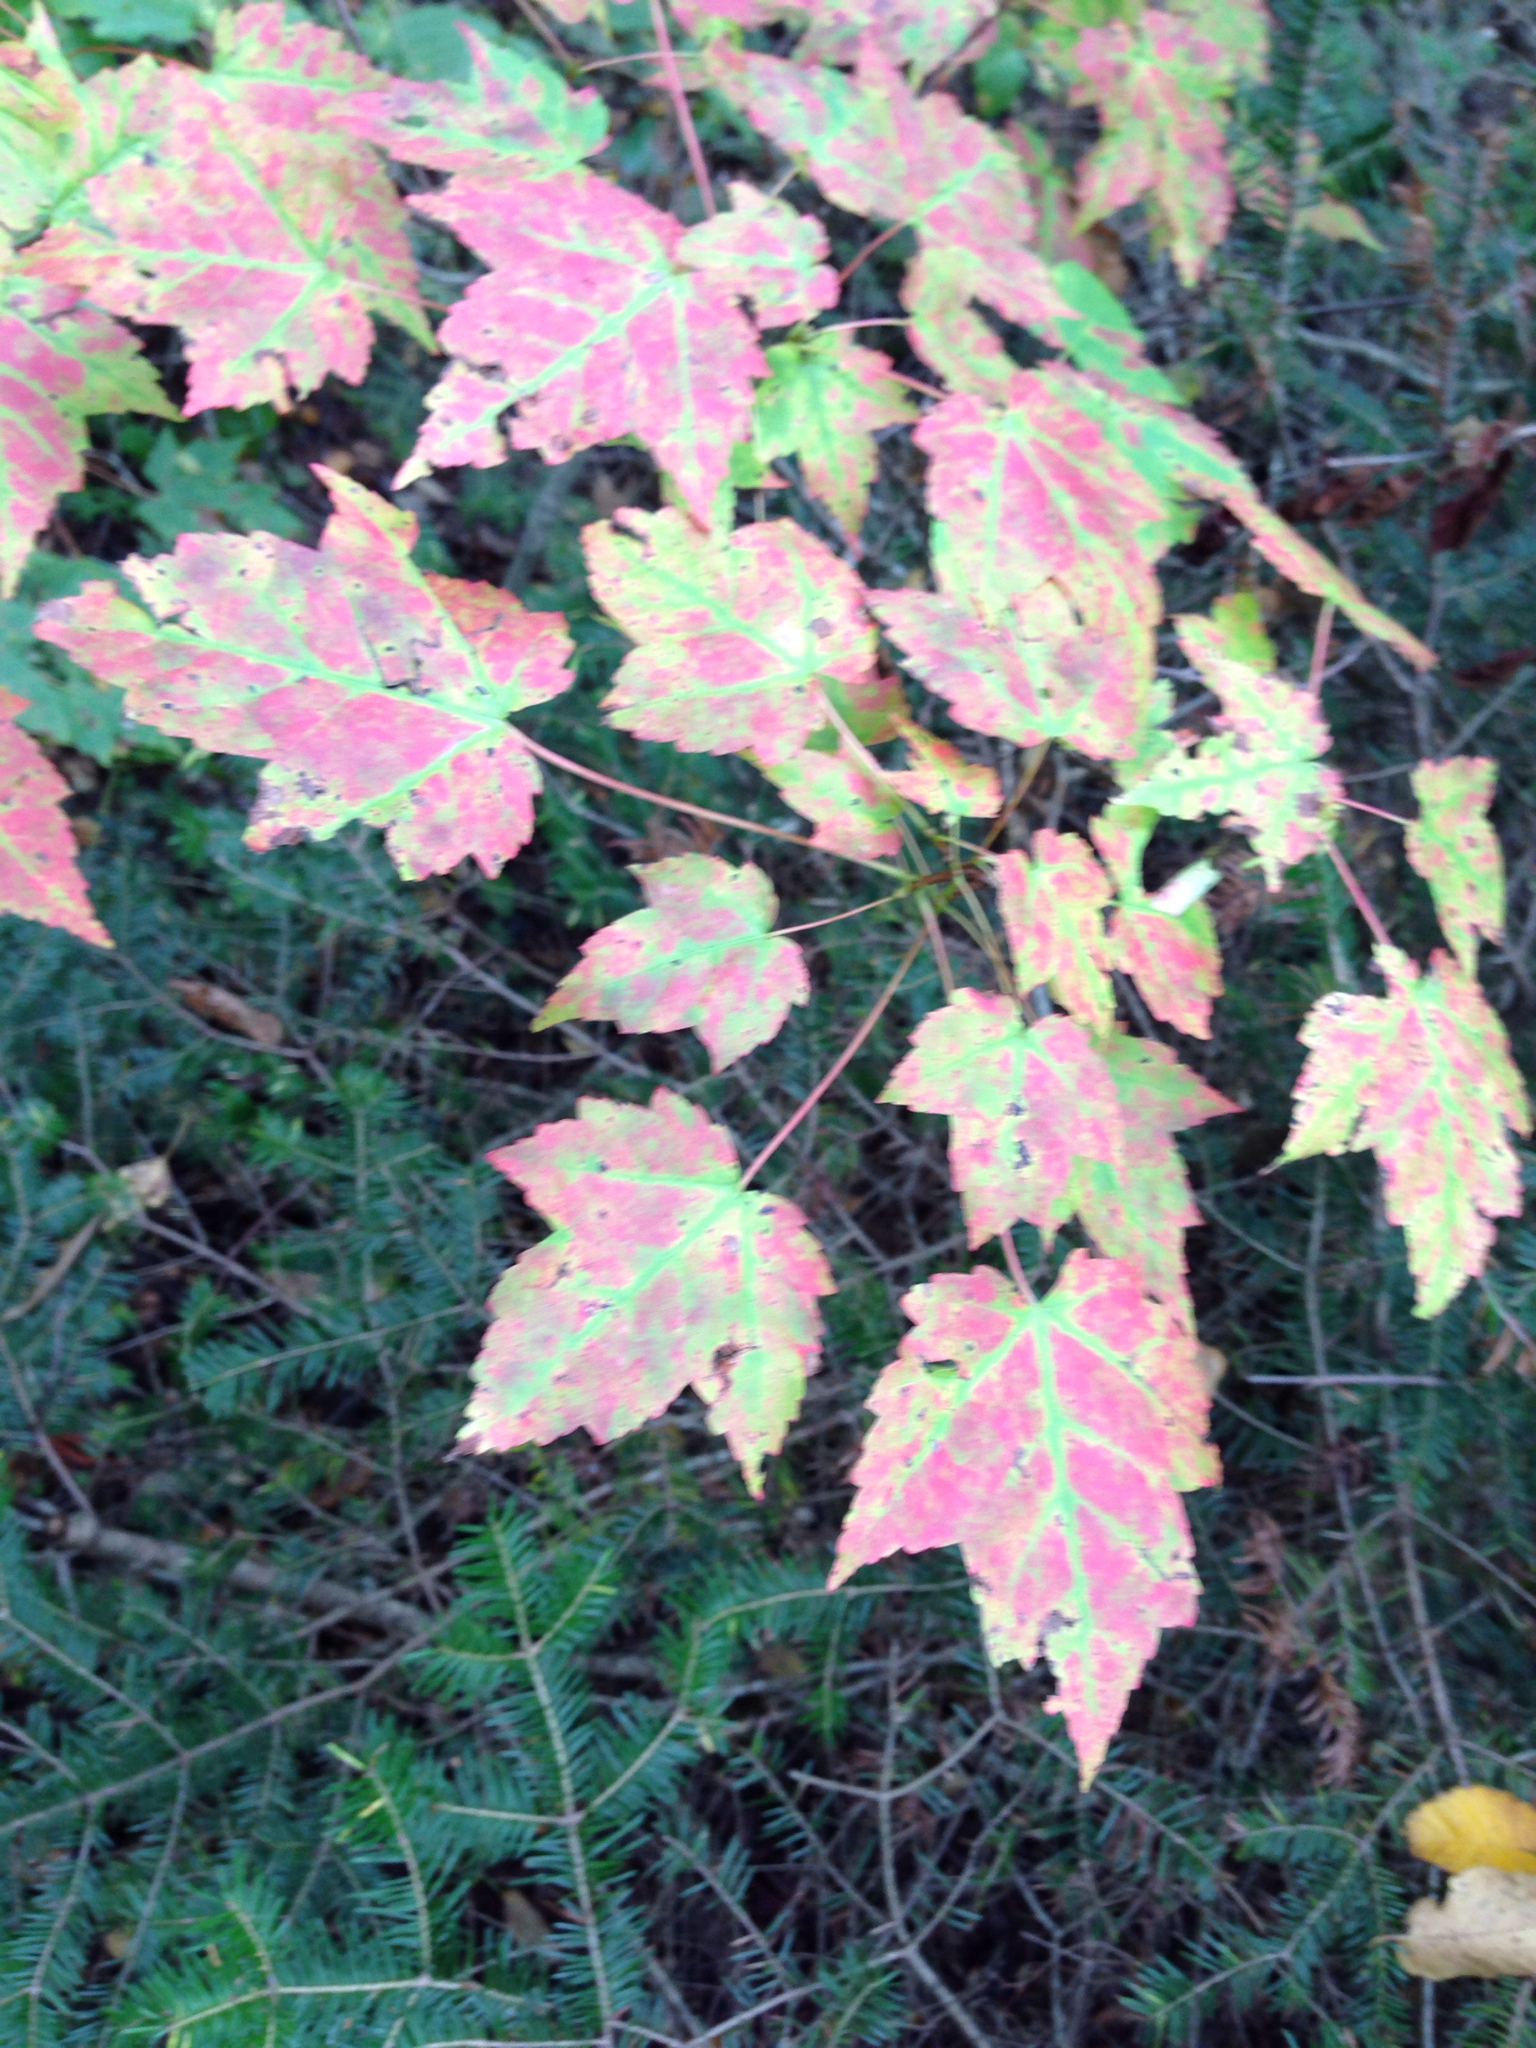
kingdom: Plantae
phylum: Tracheophyta
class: Magnoliopsida
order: Sapindales
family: Sapindaceae
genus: Acer
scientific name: Acer rubrum
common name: Red maple
